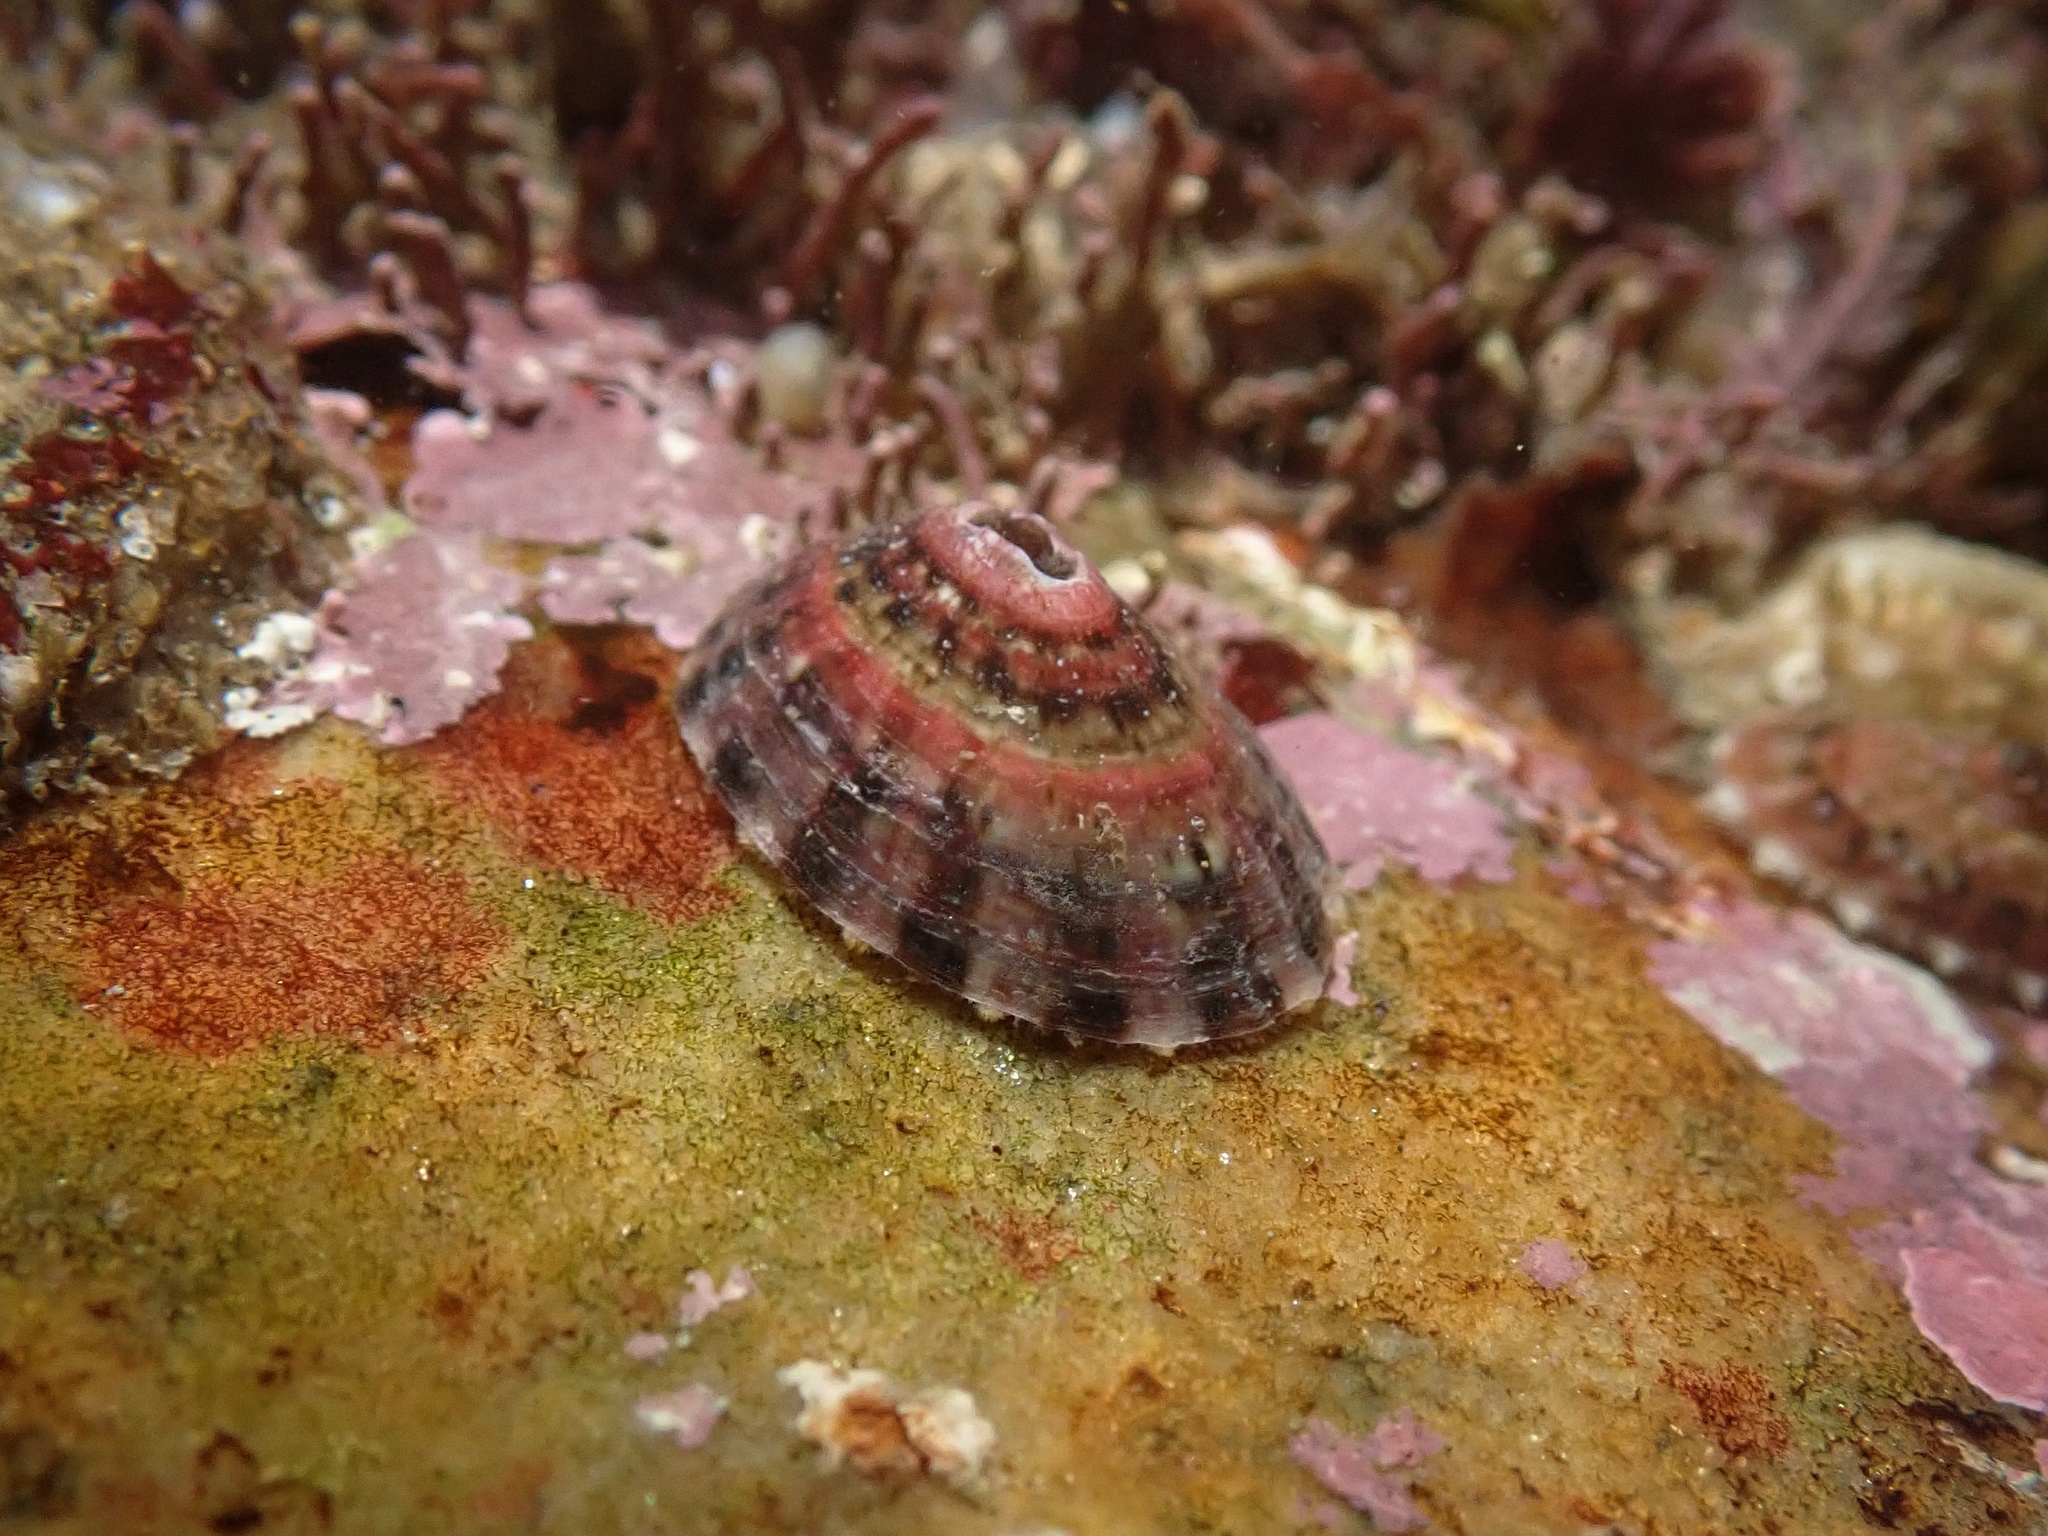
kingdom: Animalia
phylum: Mollusca
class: Gastropoda
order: Lepetellida
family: Fissurellidae
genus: Fissurella
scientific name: Fissurella volcano
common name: Volcano keyhole limpet
